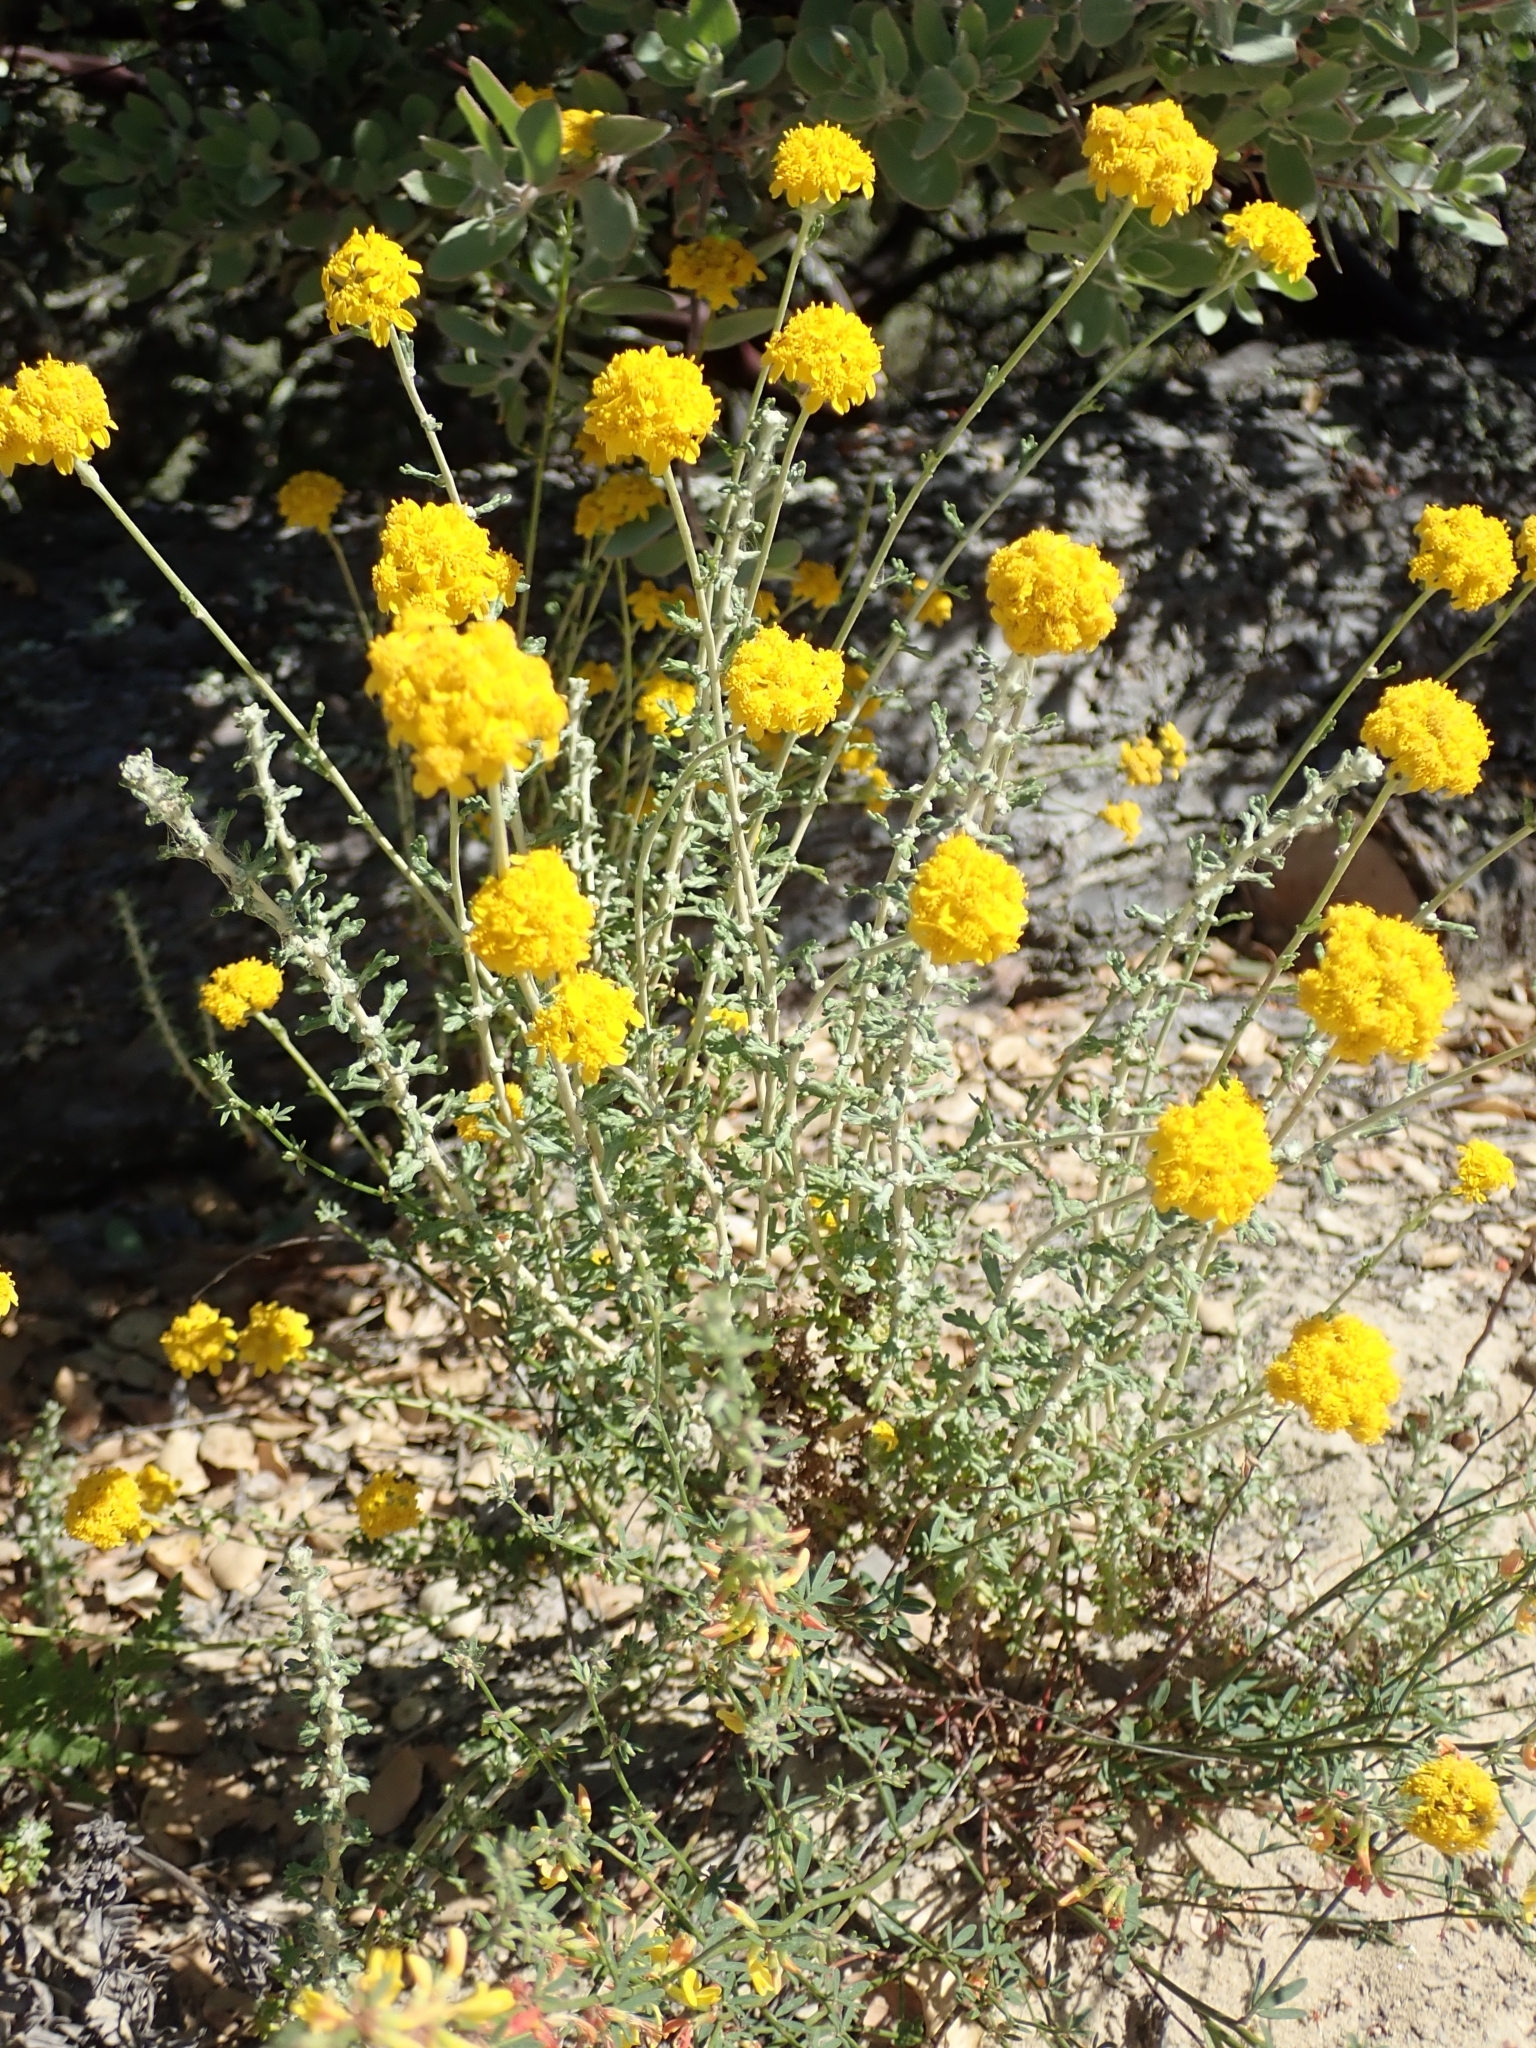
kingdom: Plantae
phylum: Tracheophyta
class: Magnoliopsida
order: Asterales
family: Asteraceae
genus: Eriophyllum
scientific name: Eriophyllum confertiflorum
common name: Golden-yarrow
